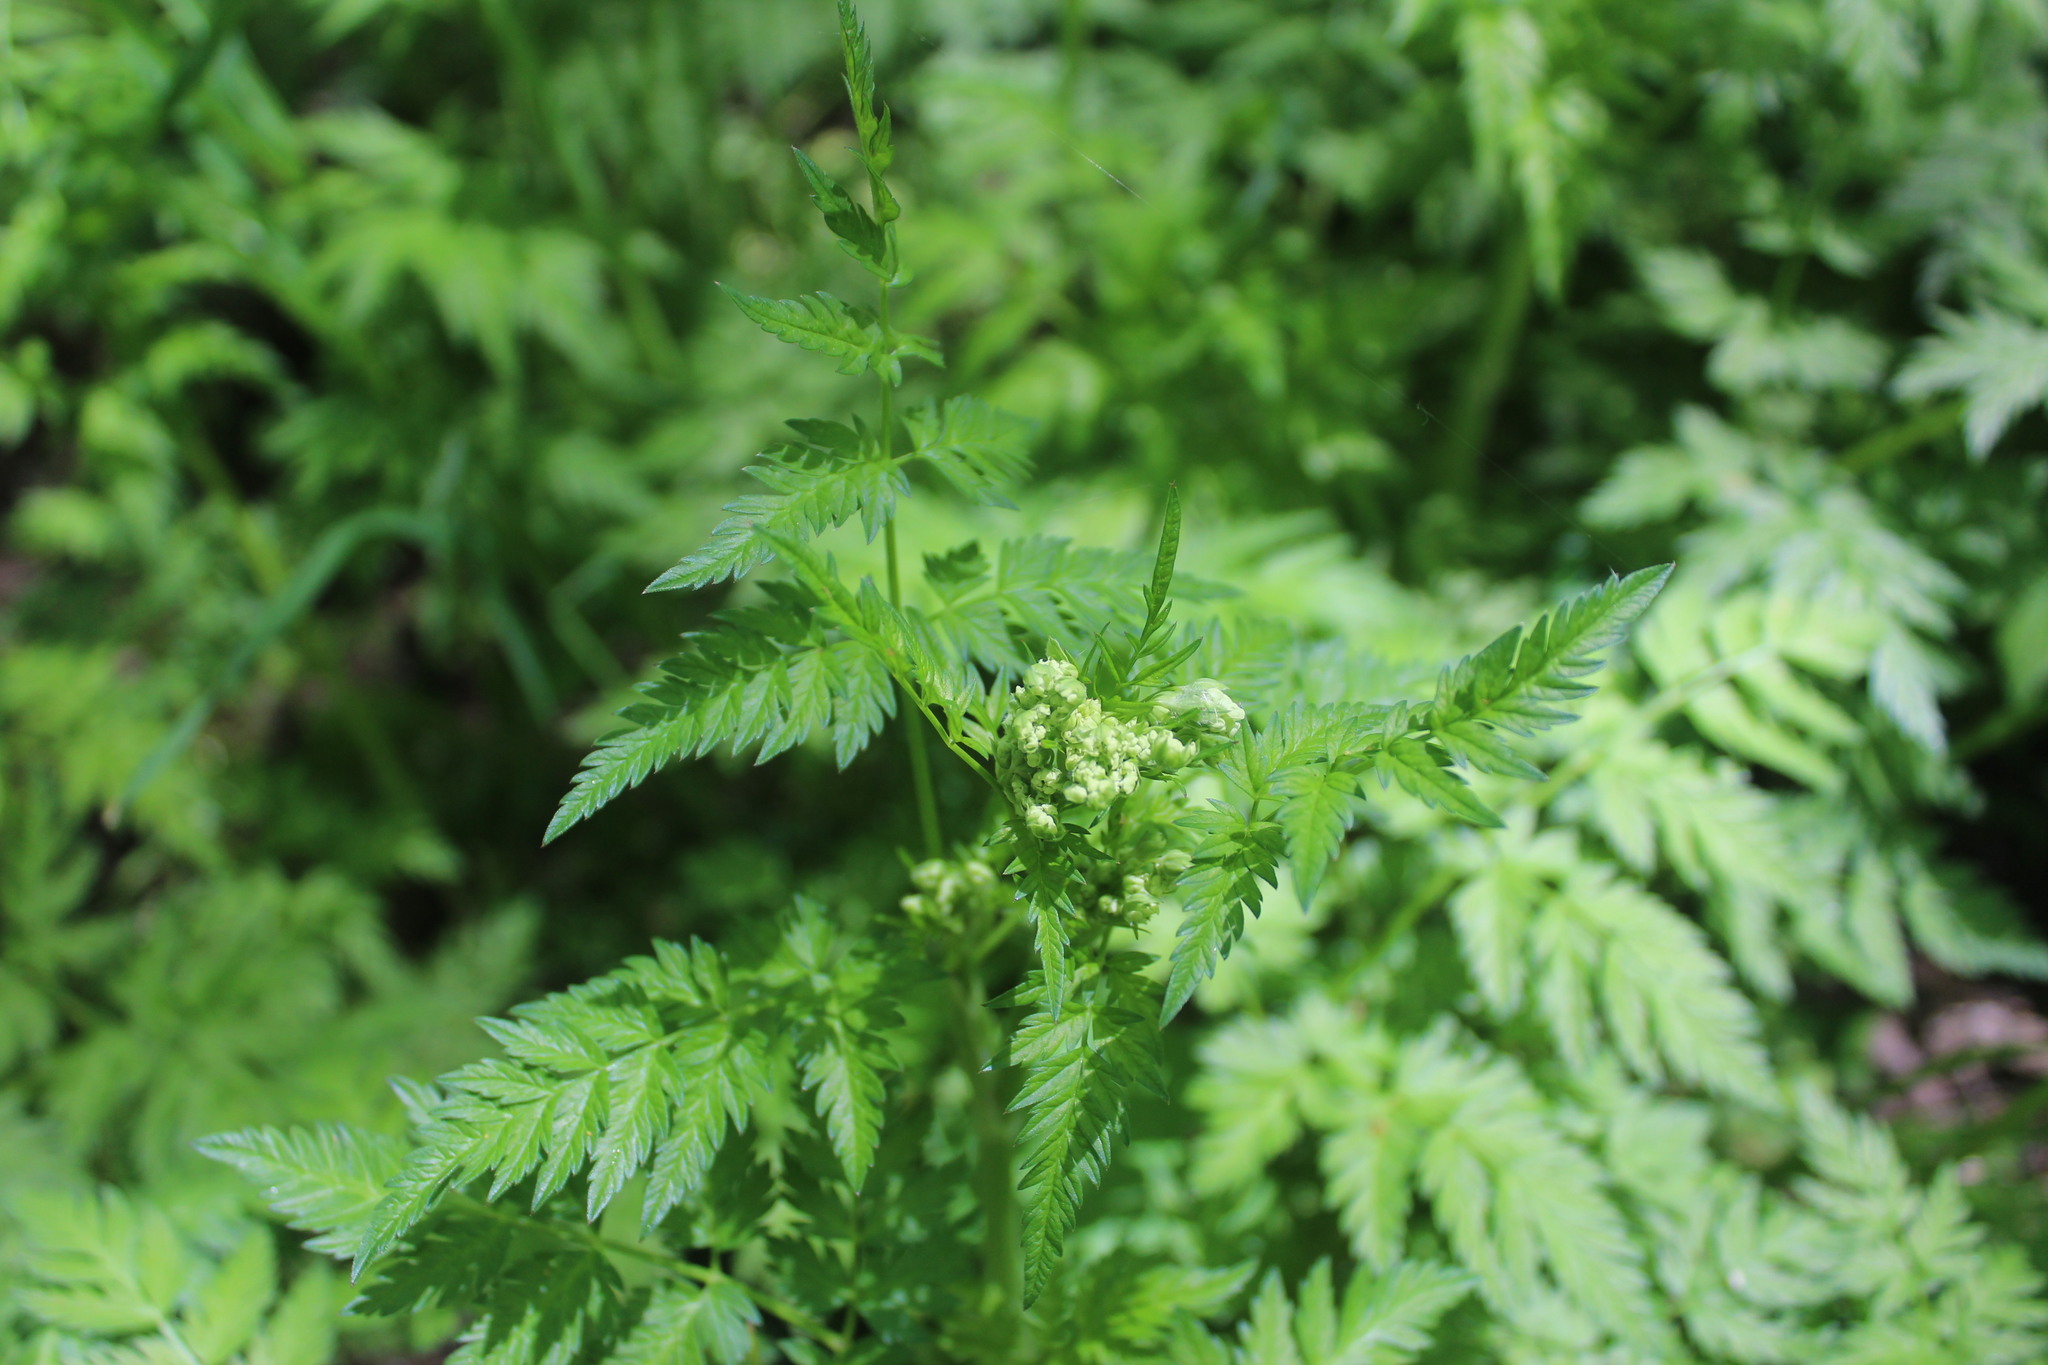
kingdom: Plantae
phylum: Tracheophyta
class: Magnoliopsida
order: Apiales
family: Apiaceae
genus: Anthriscus
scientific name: Anthriscus sylvestris
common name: Cow parsley
